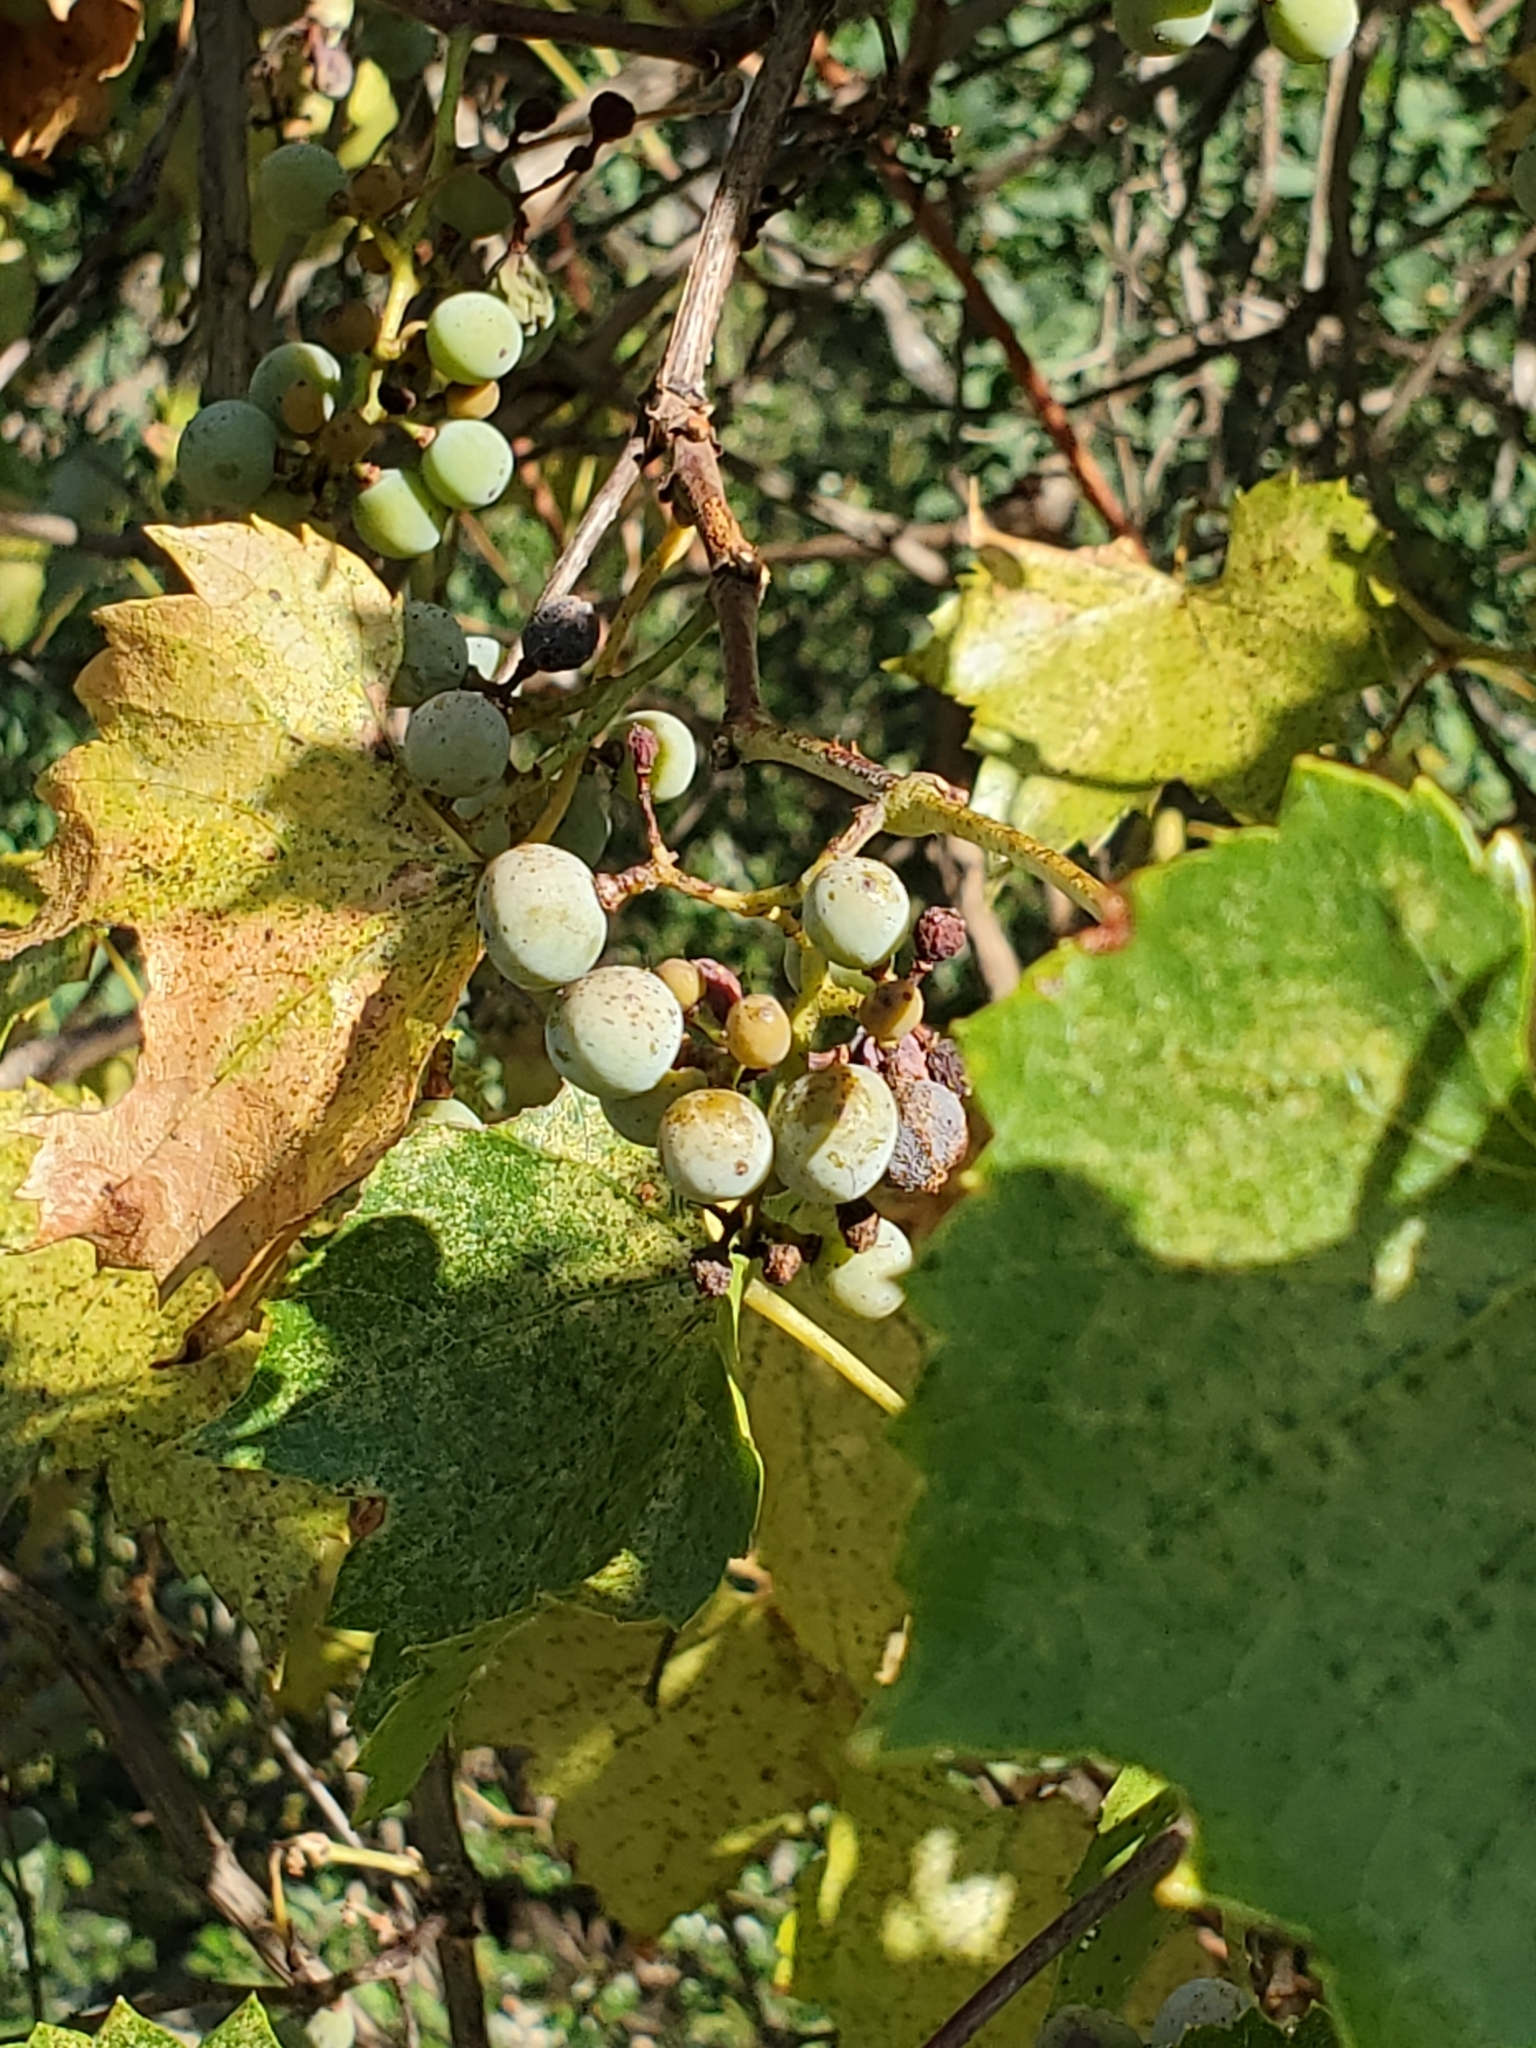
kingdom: Plantae
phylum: Tracheophyta
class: Magnoliopsida
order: Vitales
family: Vitaceae
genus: Vitis
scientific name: Vitis monticola
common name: Mountain grape
